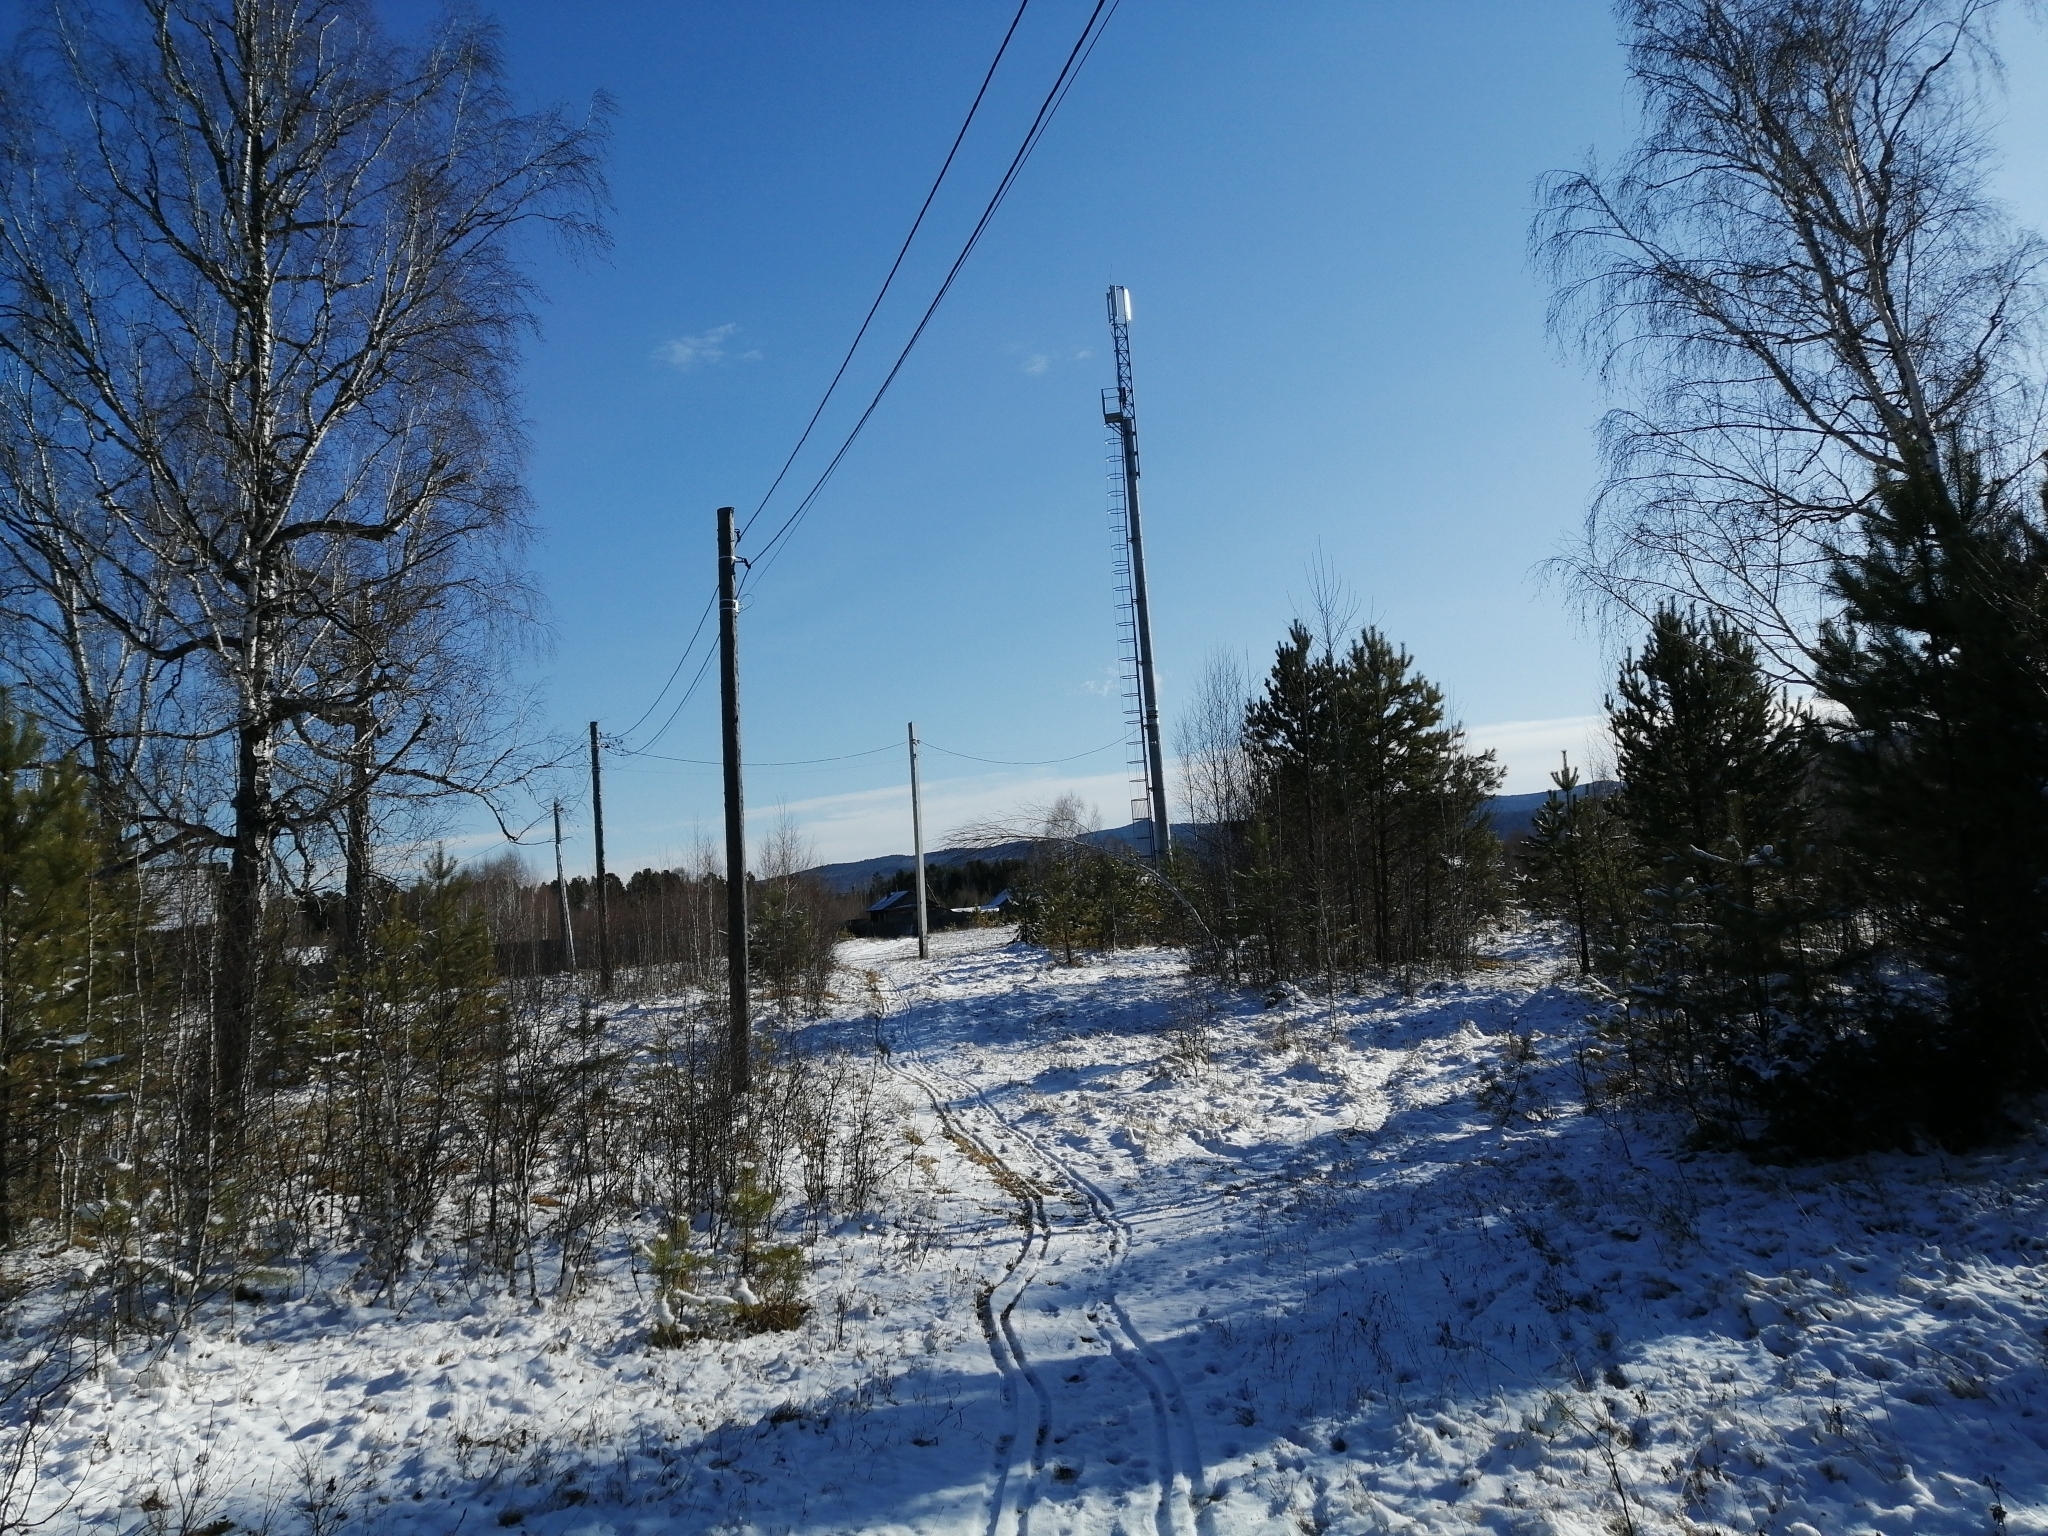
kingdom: Plantae
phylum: Tracheophyta
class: Pinopsida
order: Pinales
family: Pinaceae
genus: Pinus
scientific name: Pinus sylvestris
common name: Scots pine
